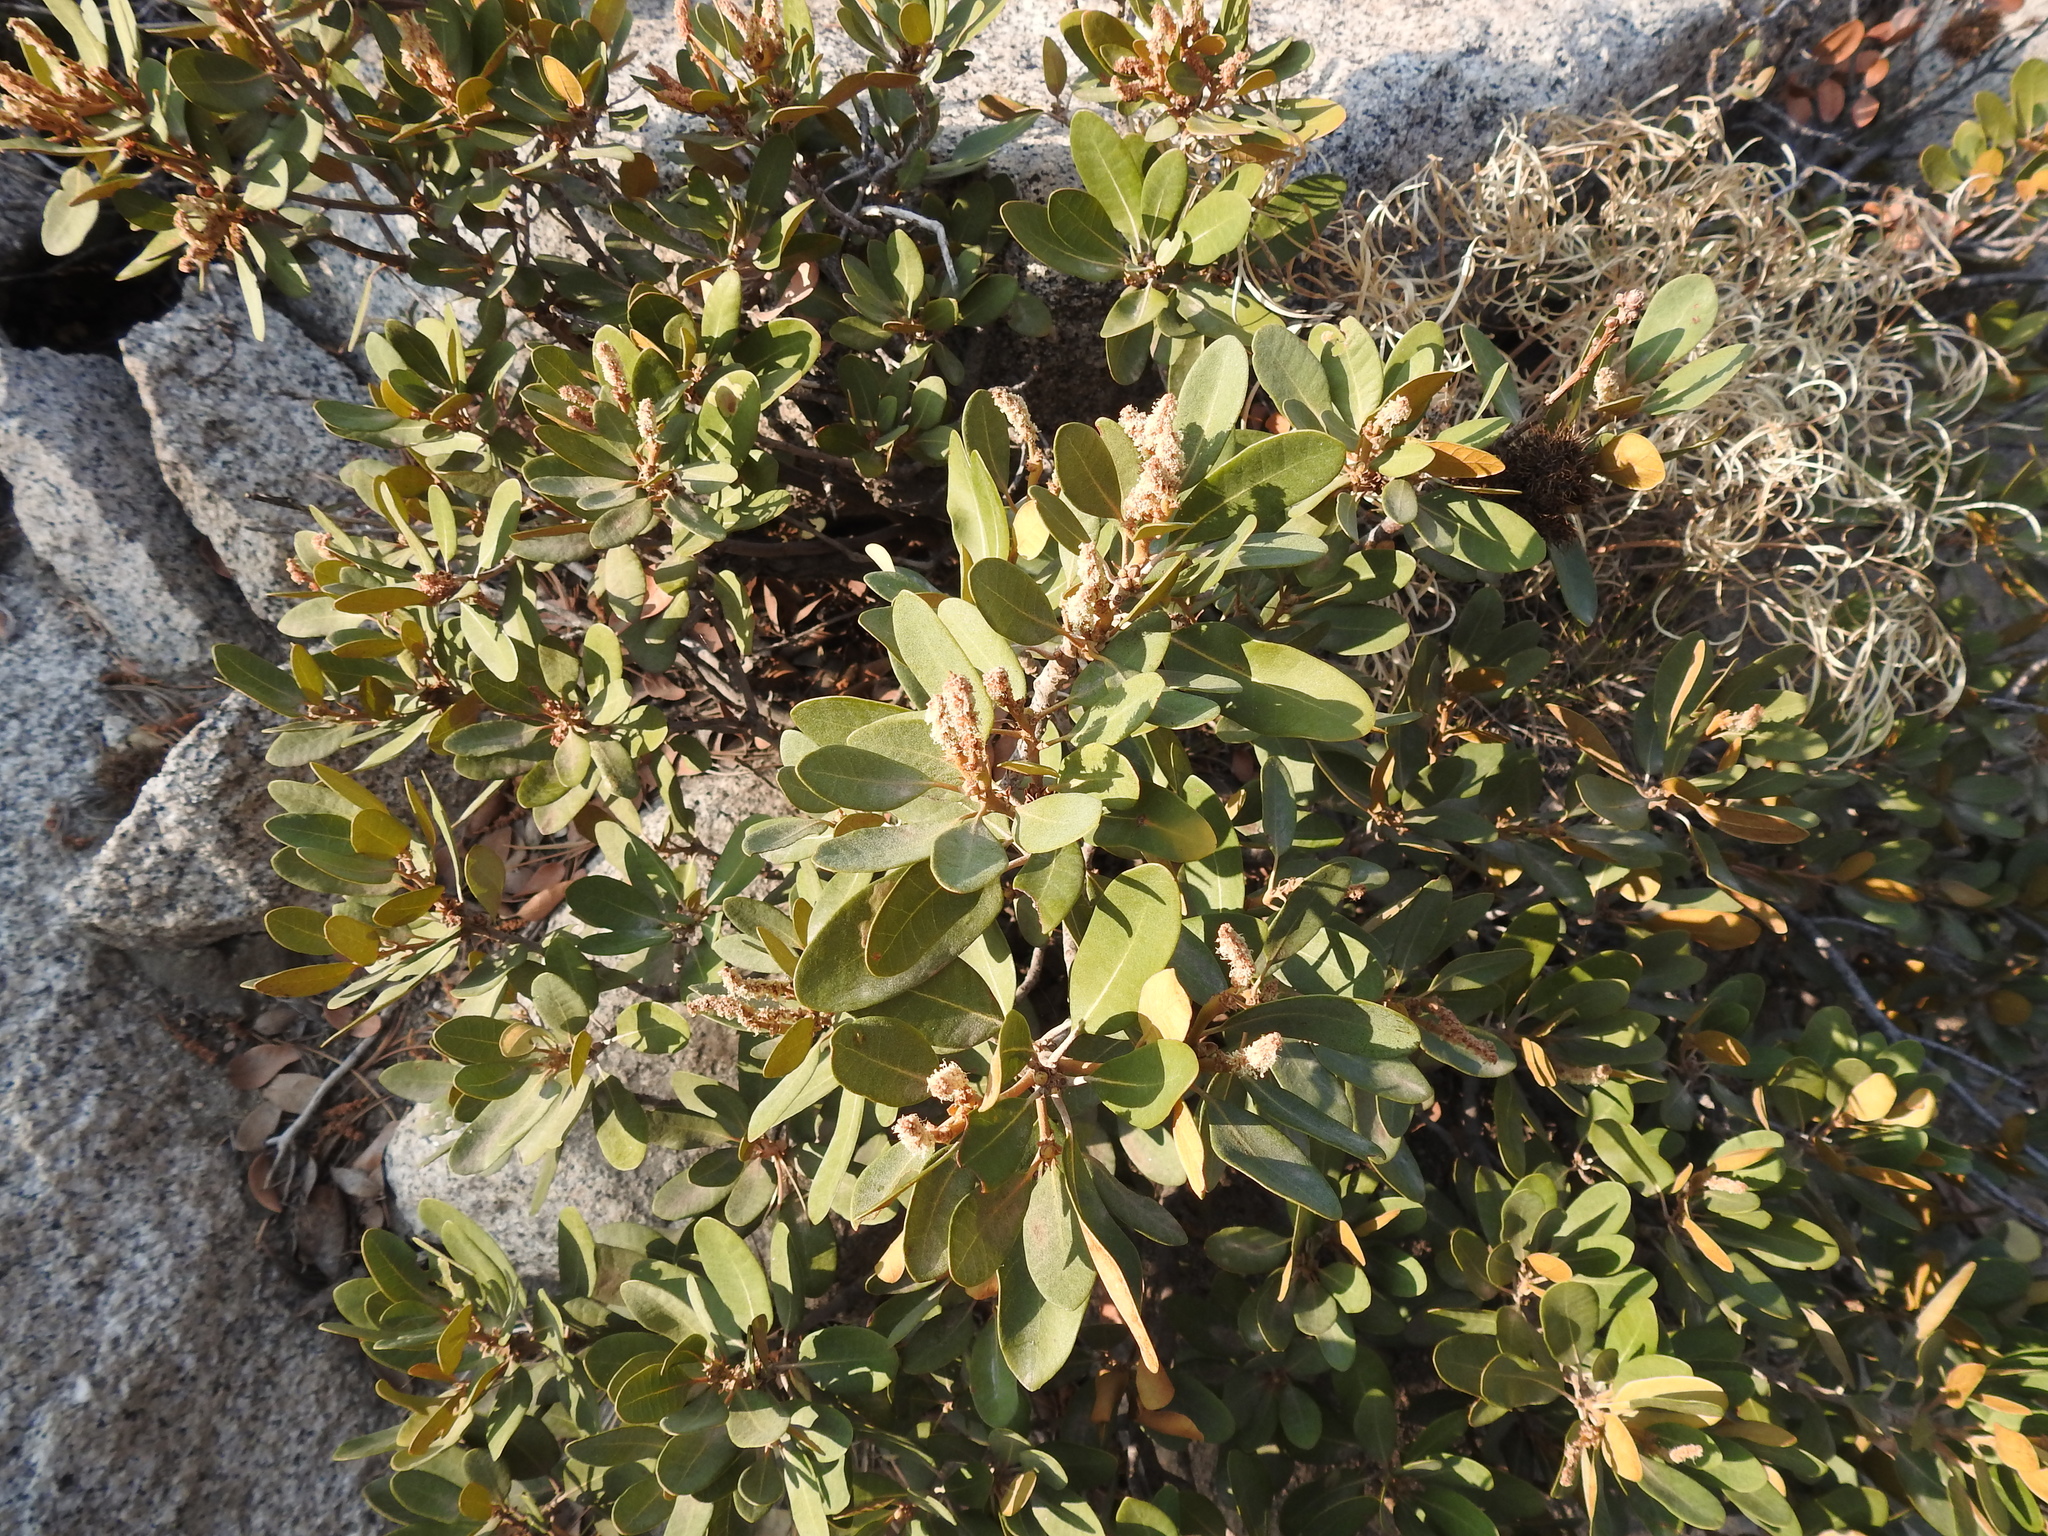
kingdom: Plantae
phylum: Tracheophyta
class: Magnoliopsida
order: Fagales
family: Fagaceae
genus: Chrysolepis
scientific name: Chrysolepis sempervirens
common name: Bush chinquapin
